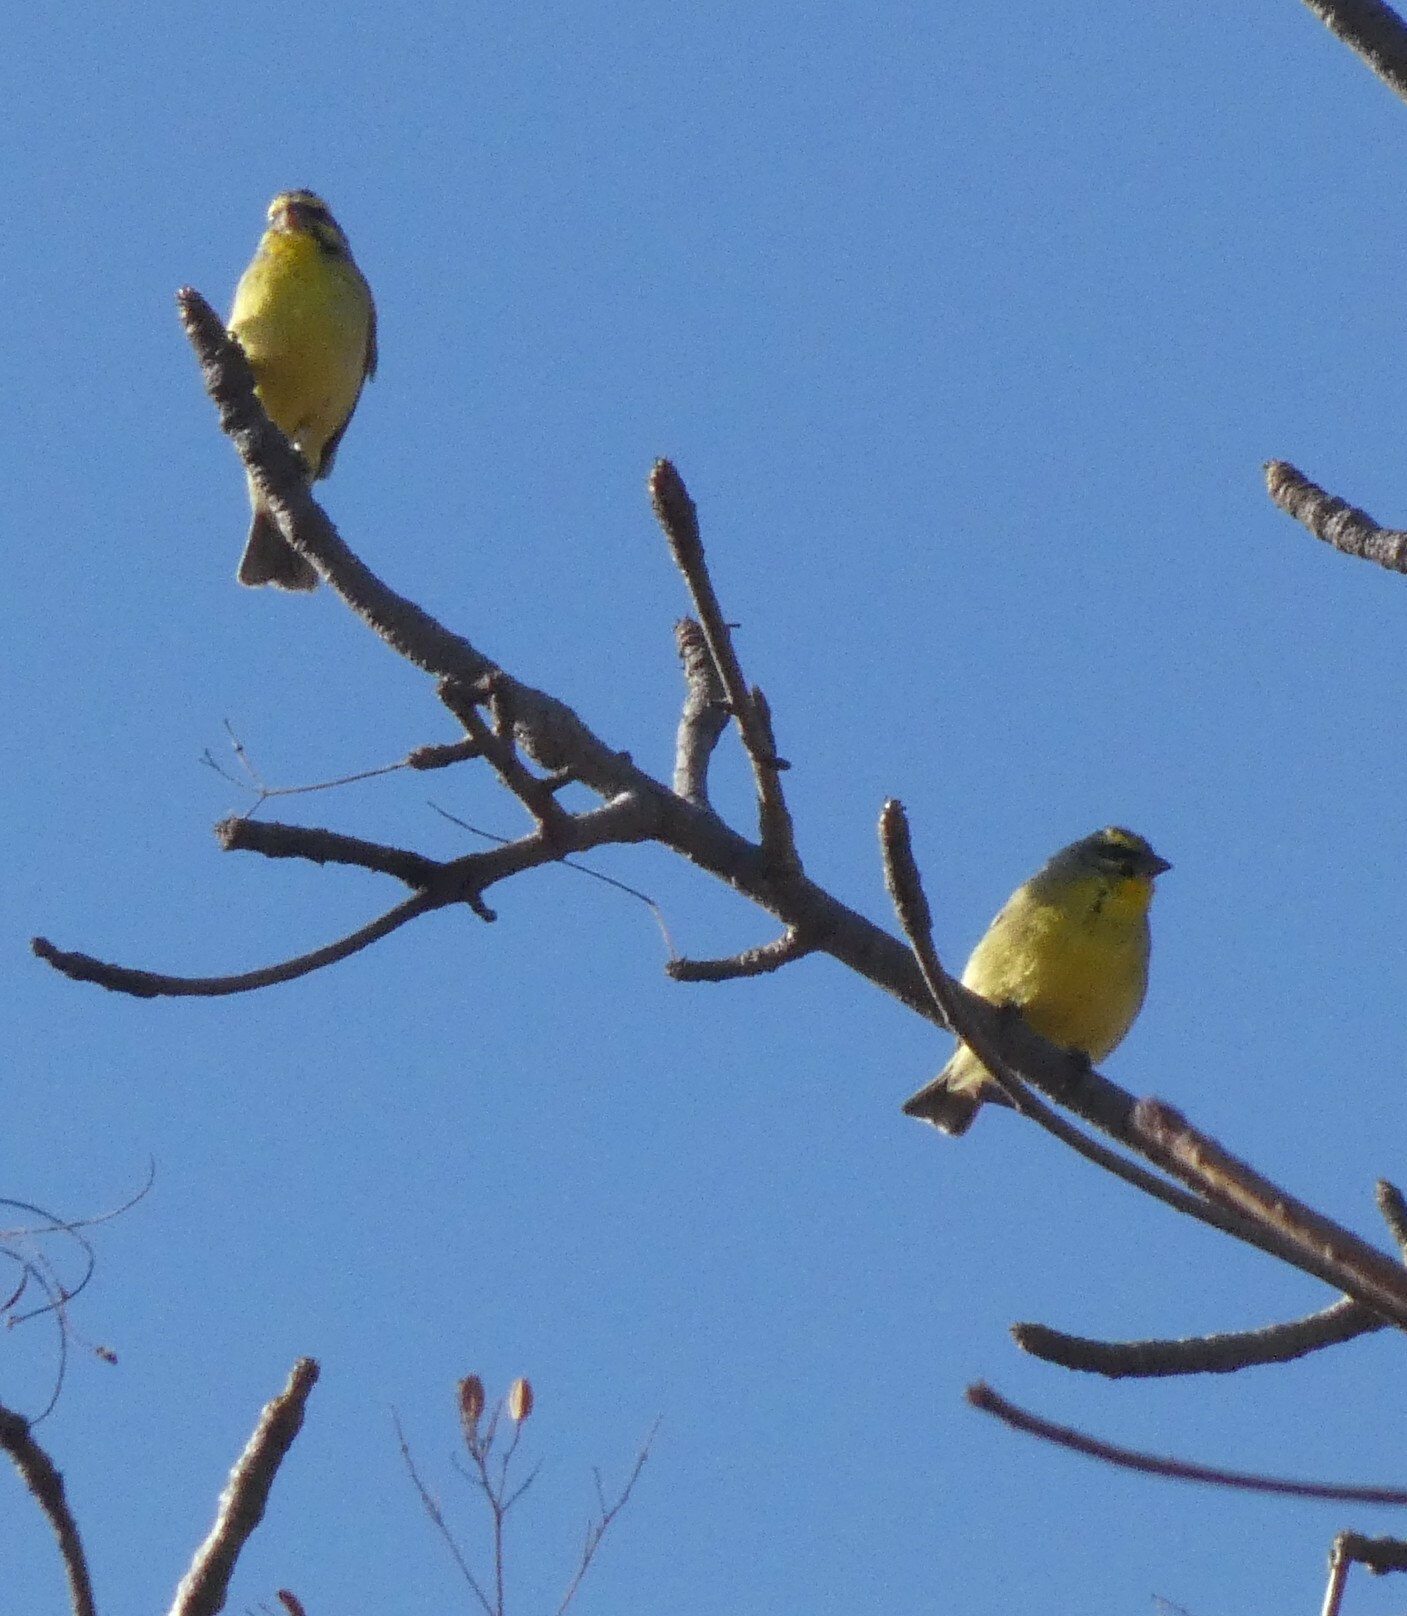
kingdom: Animalia
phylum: Chordata
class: Aves
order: Passeriformes
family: Fringillidae
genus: Crithagra
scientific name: Crithagra mozambica
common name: Yellow-fronted canary
